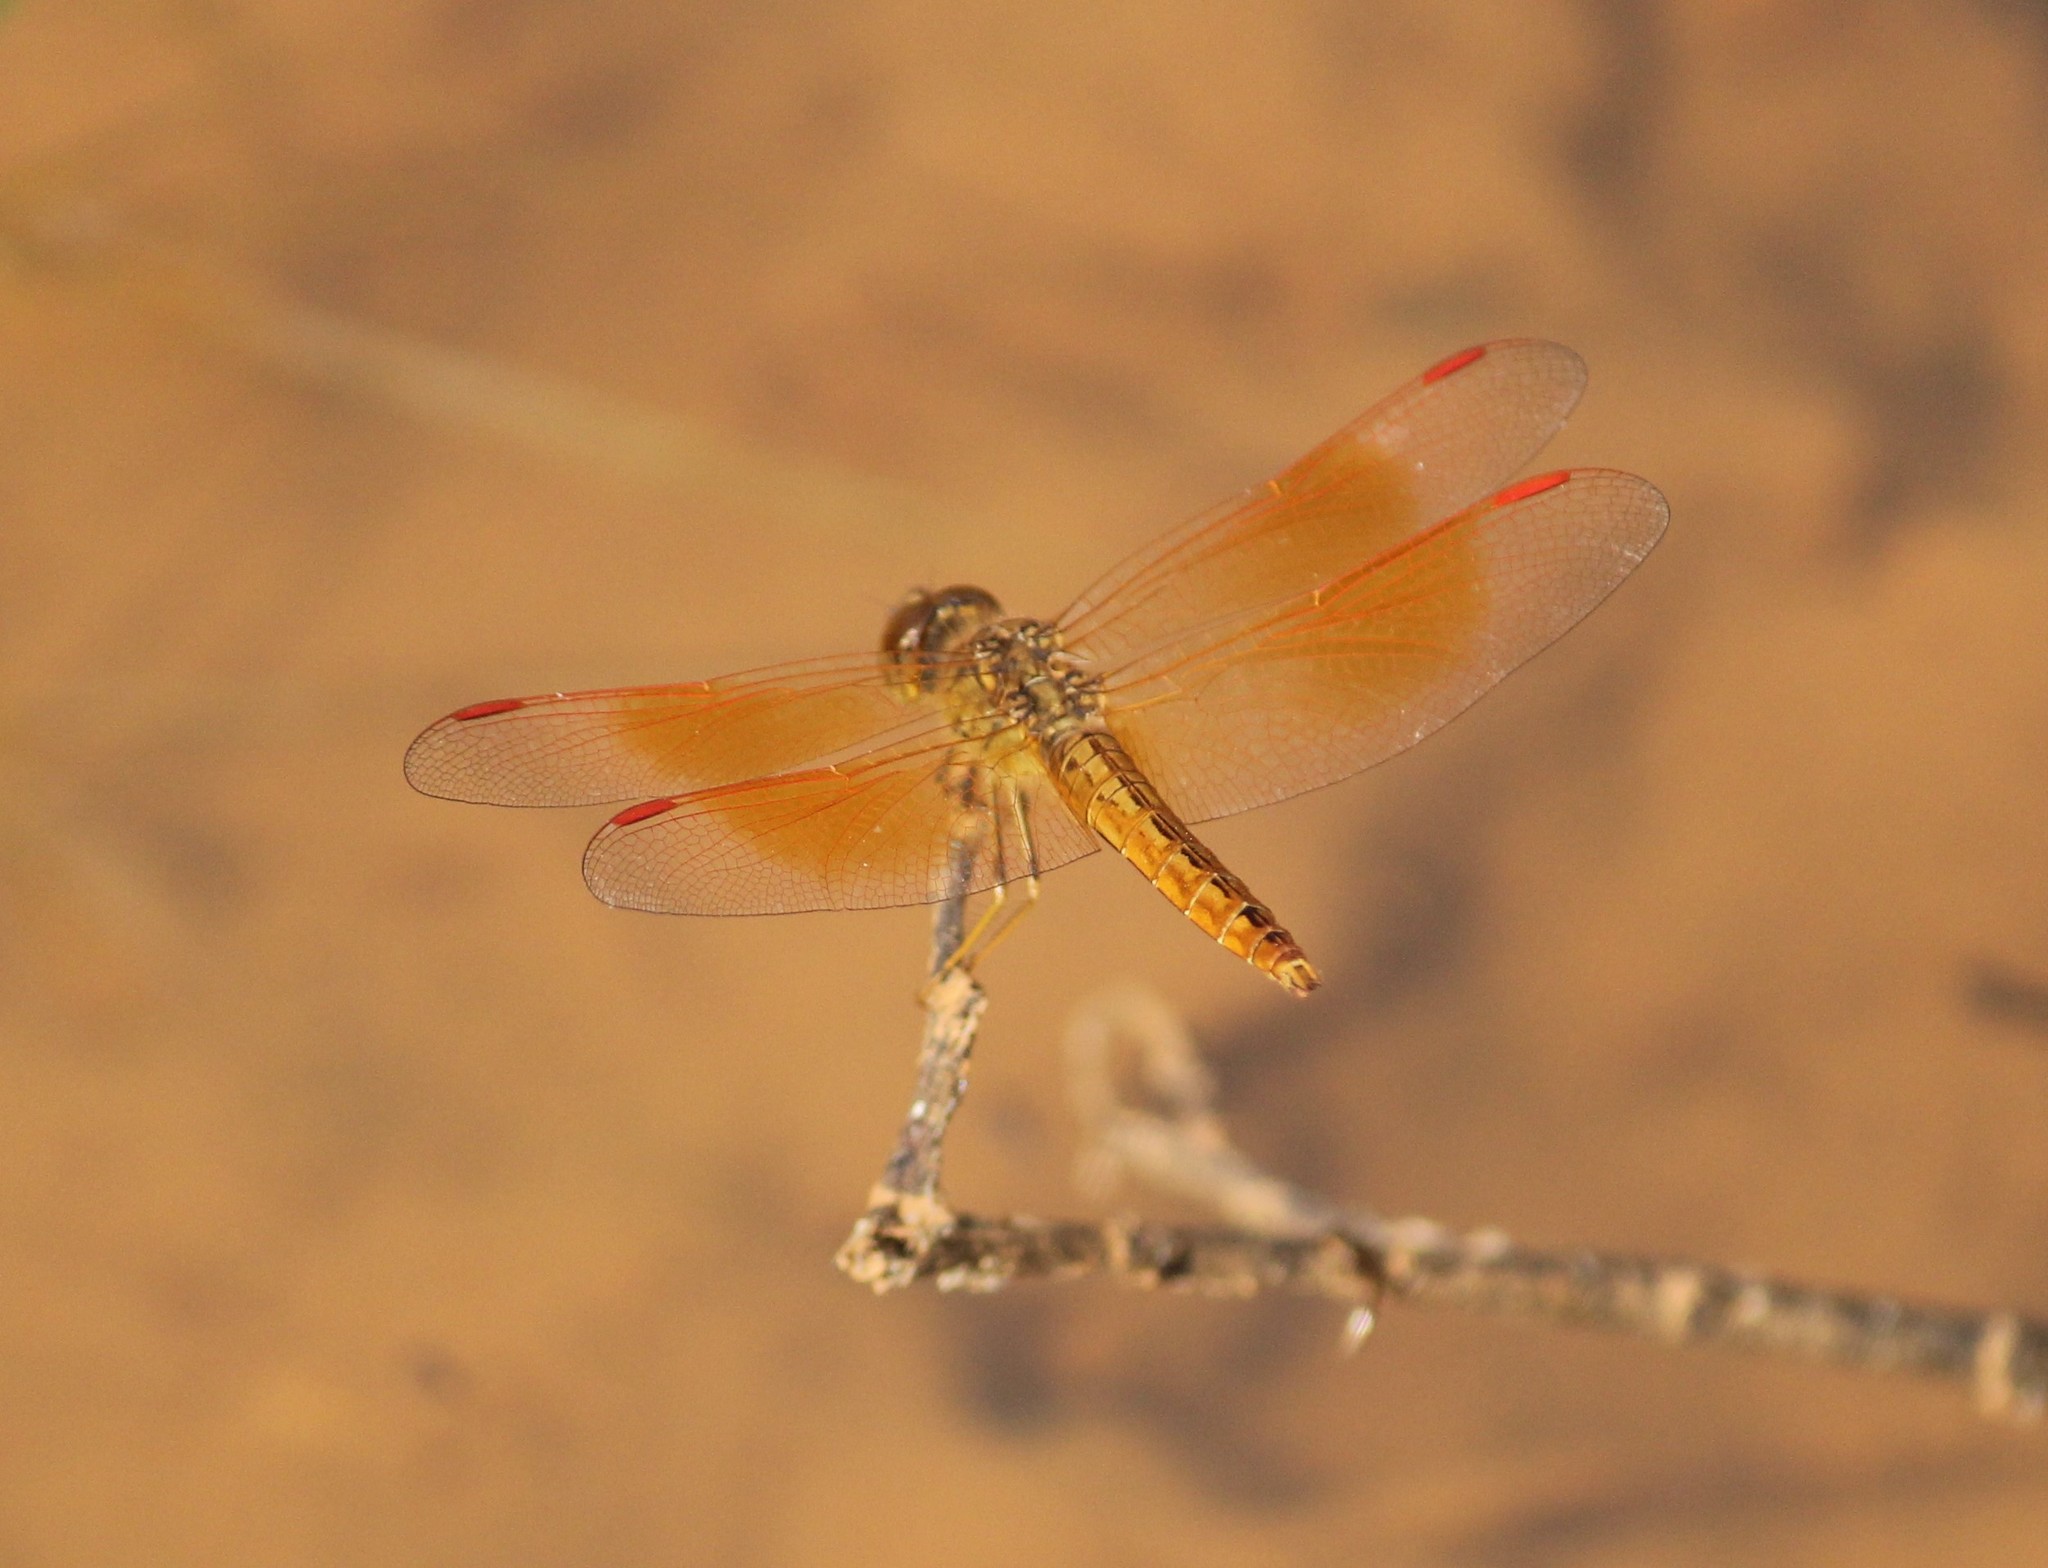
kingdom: Animalia
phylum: Arthropoda
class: Insecta
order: Odonata
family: Libellulidae
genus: Brachythemis
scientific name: Brachythemis contaminata
